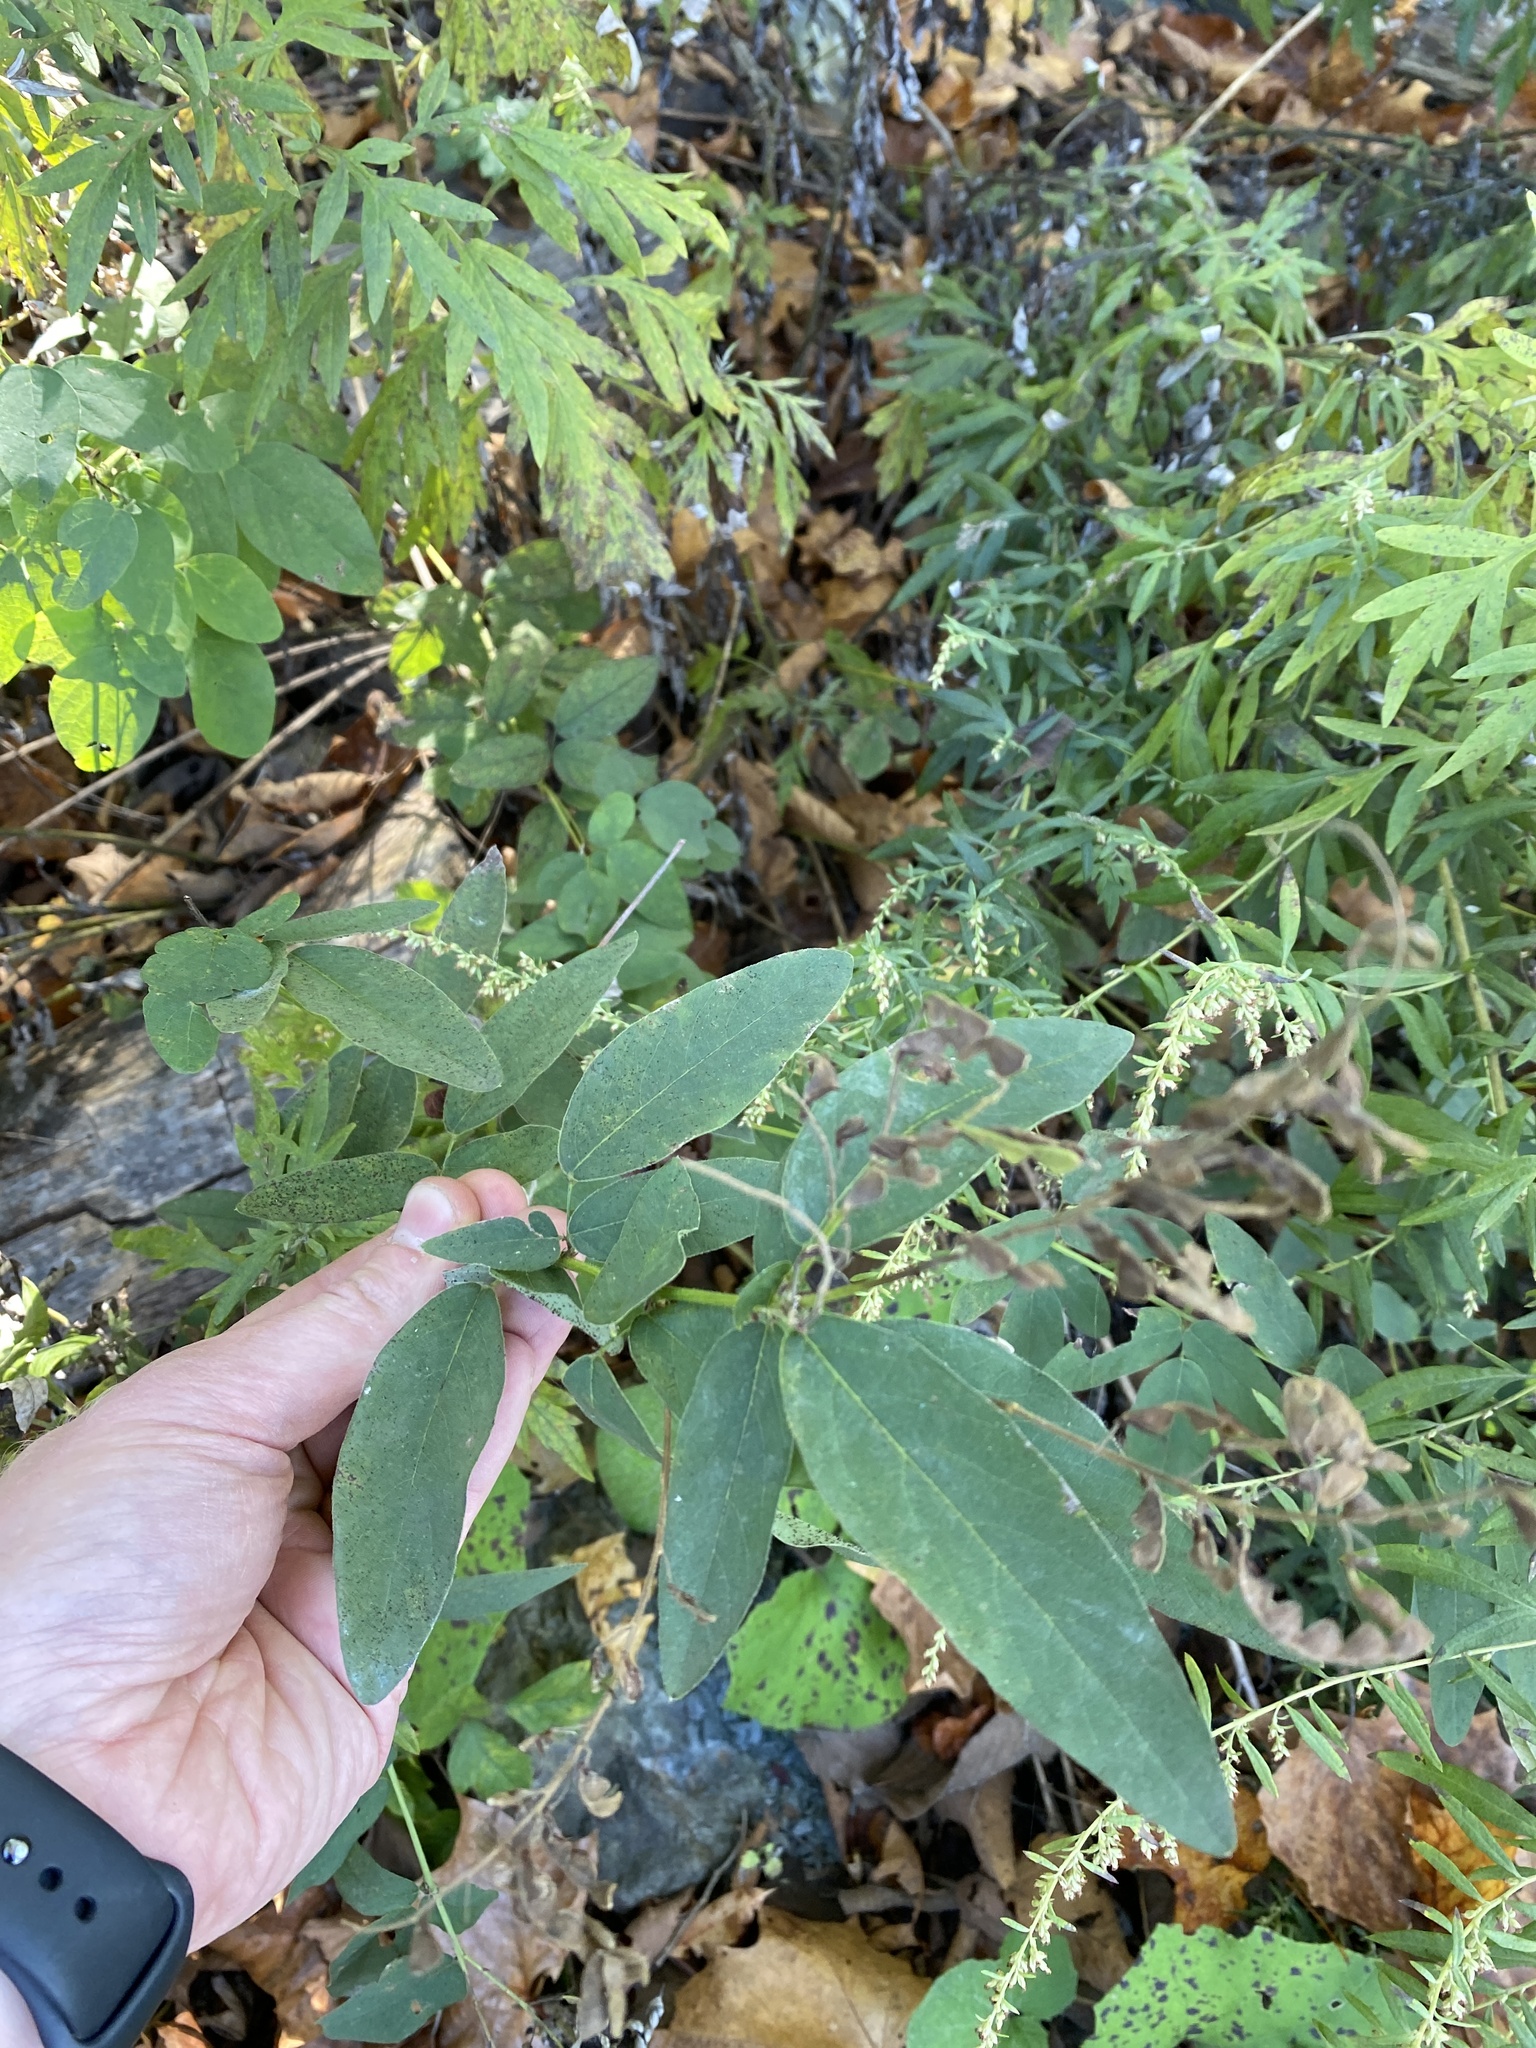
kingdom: Plantae
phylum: Tracheophyta
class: Magnoliopsida
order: Fabales
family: Fabaceae
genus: Desmodium
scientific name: Desmodium canadense
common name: Canada tick-trefoil
